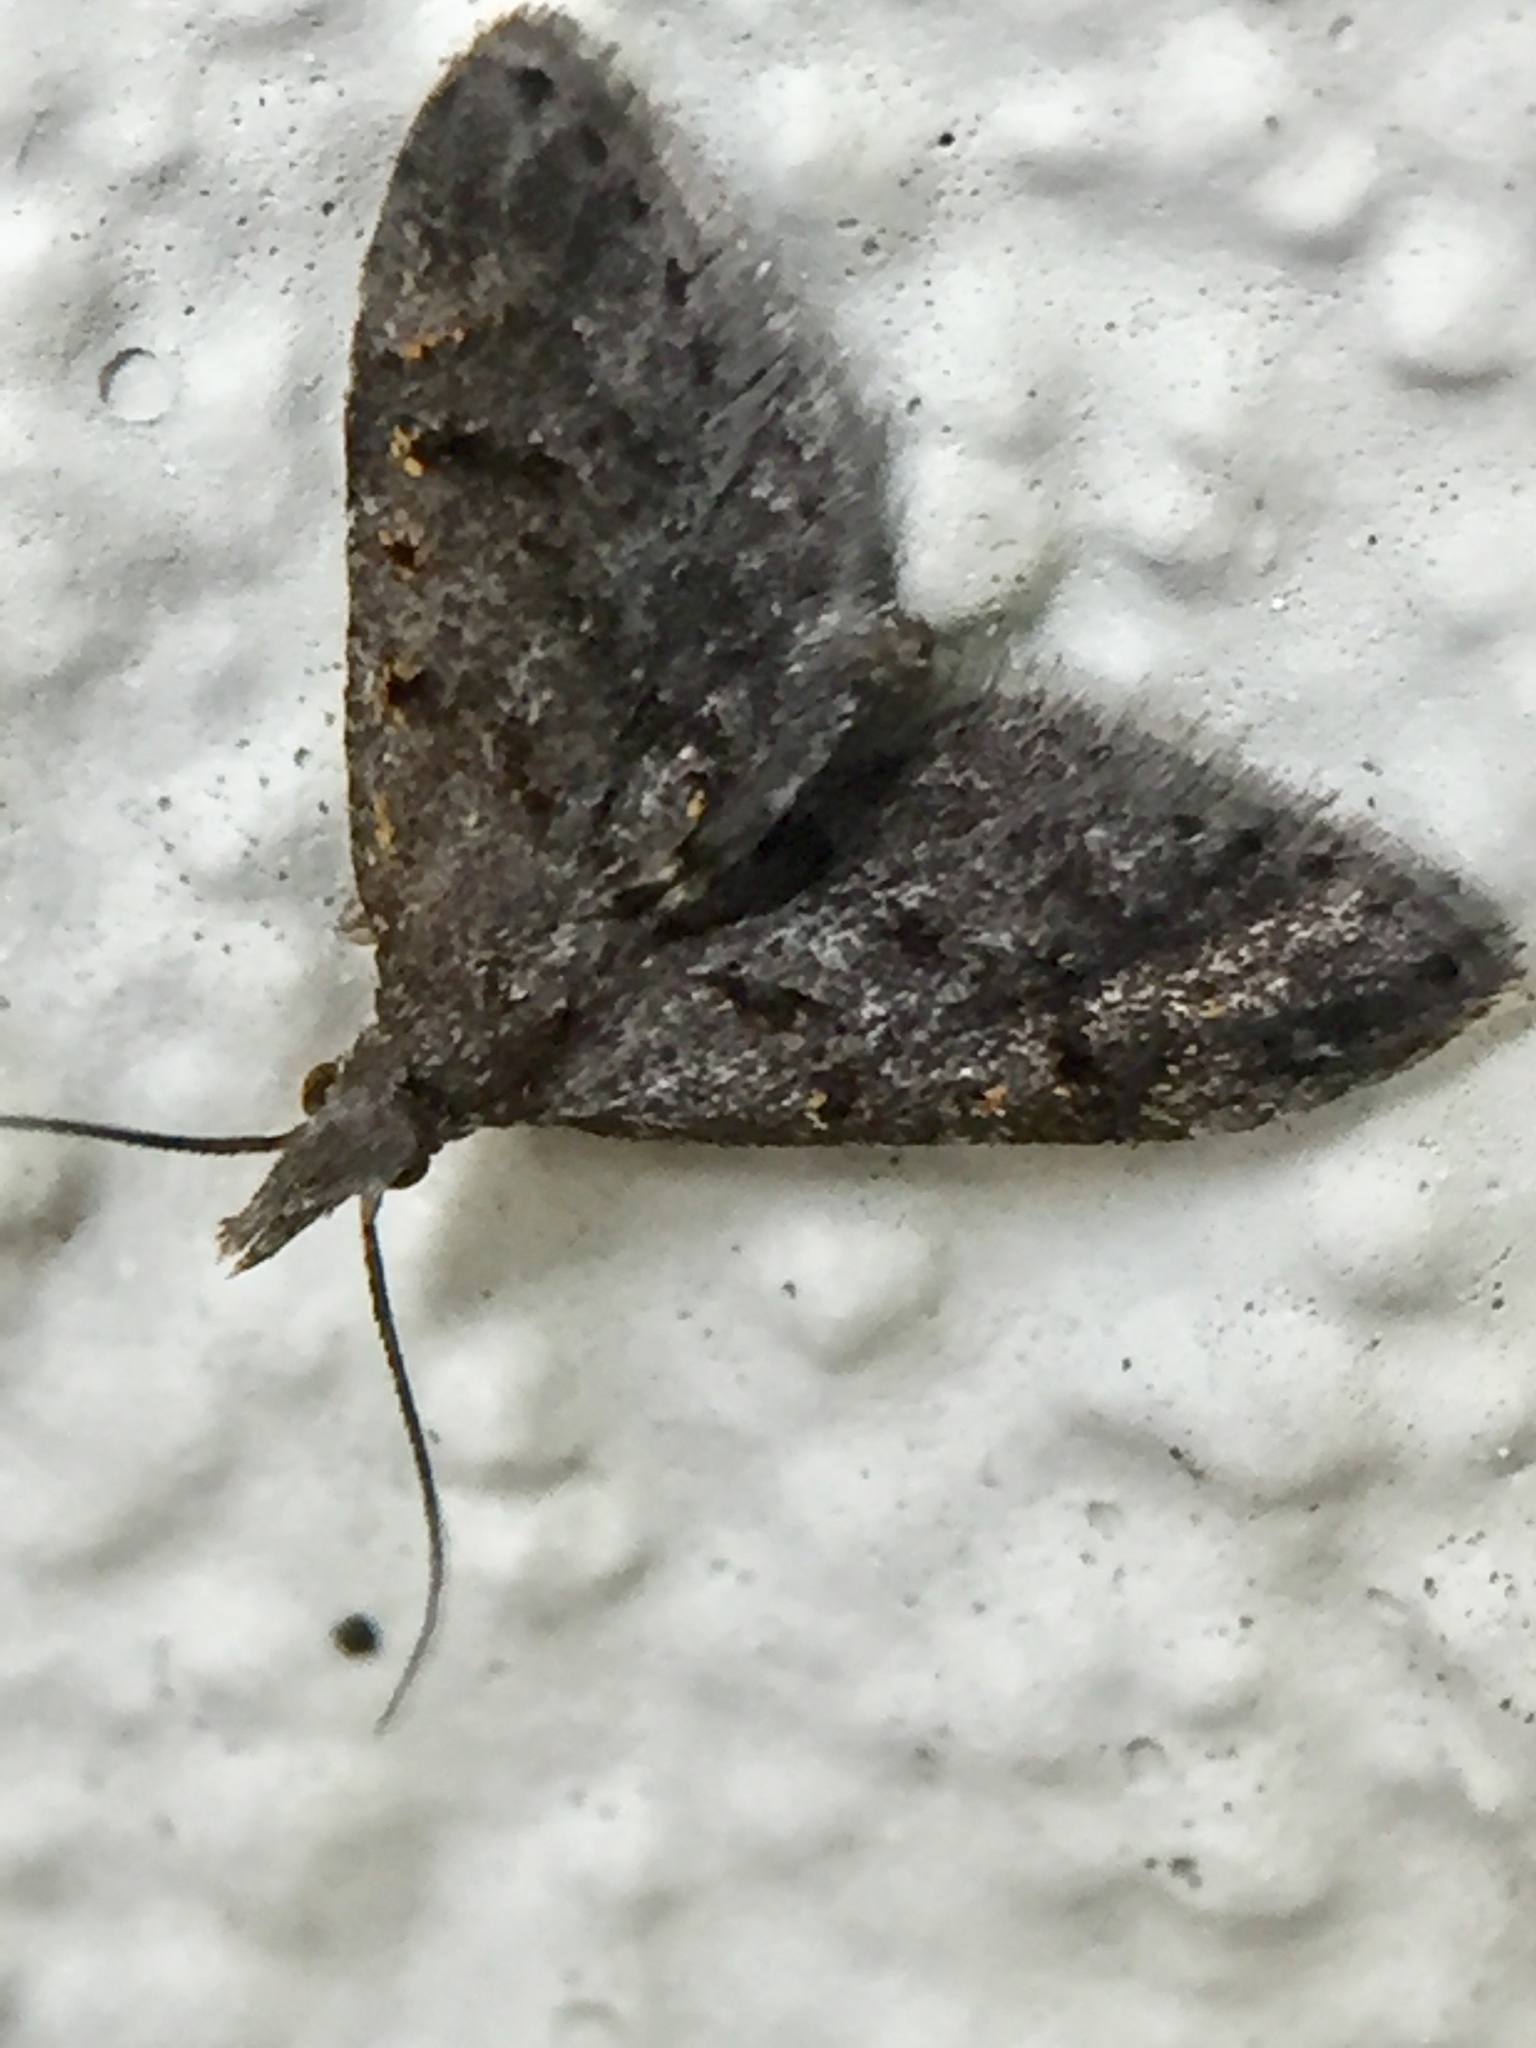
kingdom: Animalia
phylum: Arthropoda
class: Insecta
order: Lepidoptera
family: Copromorphidae
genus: Isonomeutis
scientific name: Isonomeutis amauropa
